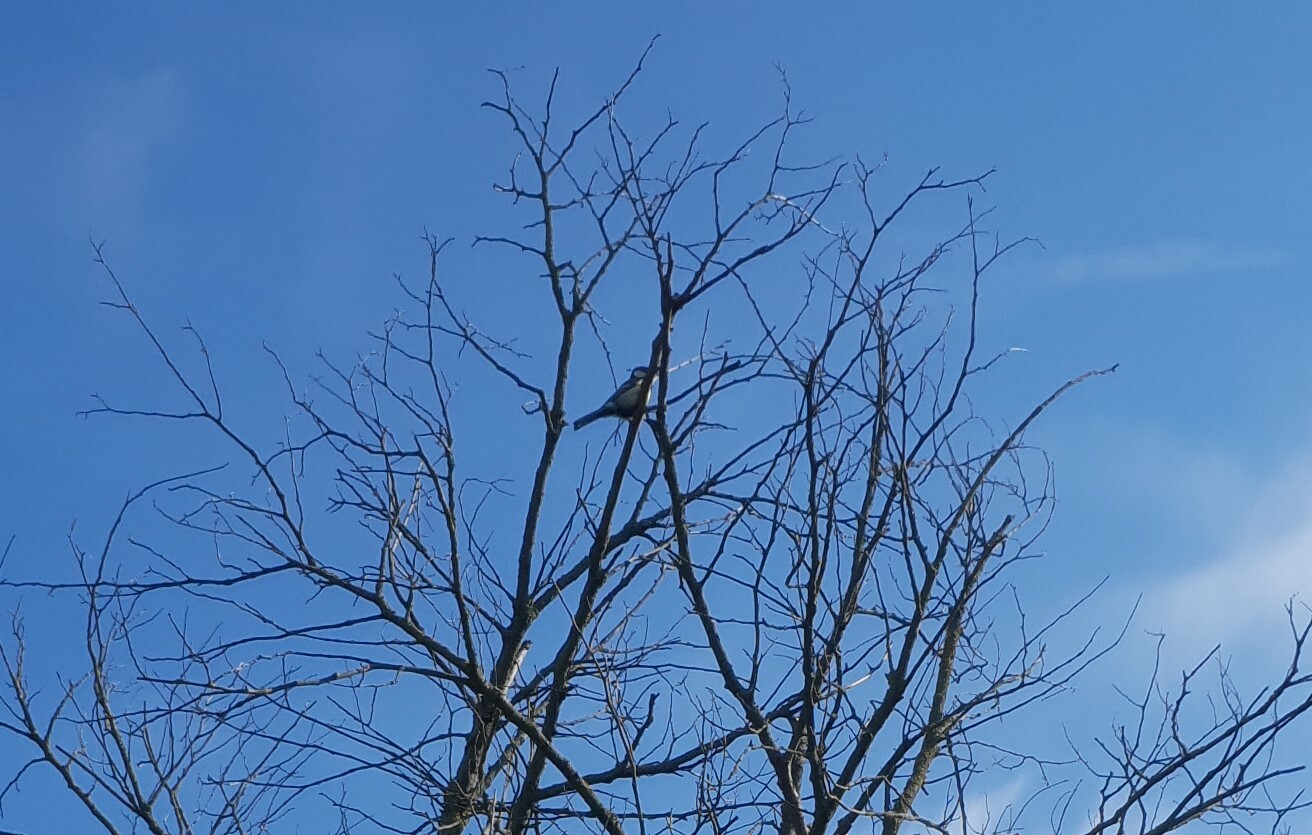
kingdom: Animalia
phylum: Chordata
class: Aves
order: Passeriformes
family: Paridae
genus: Parus
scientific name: Parus major
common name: Great tit
